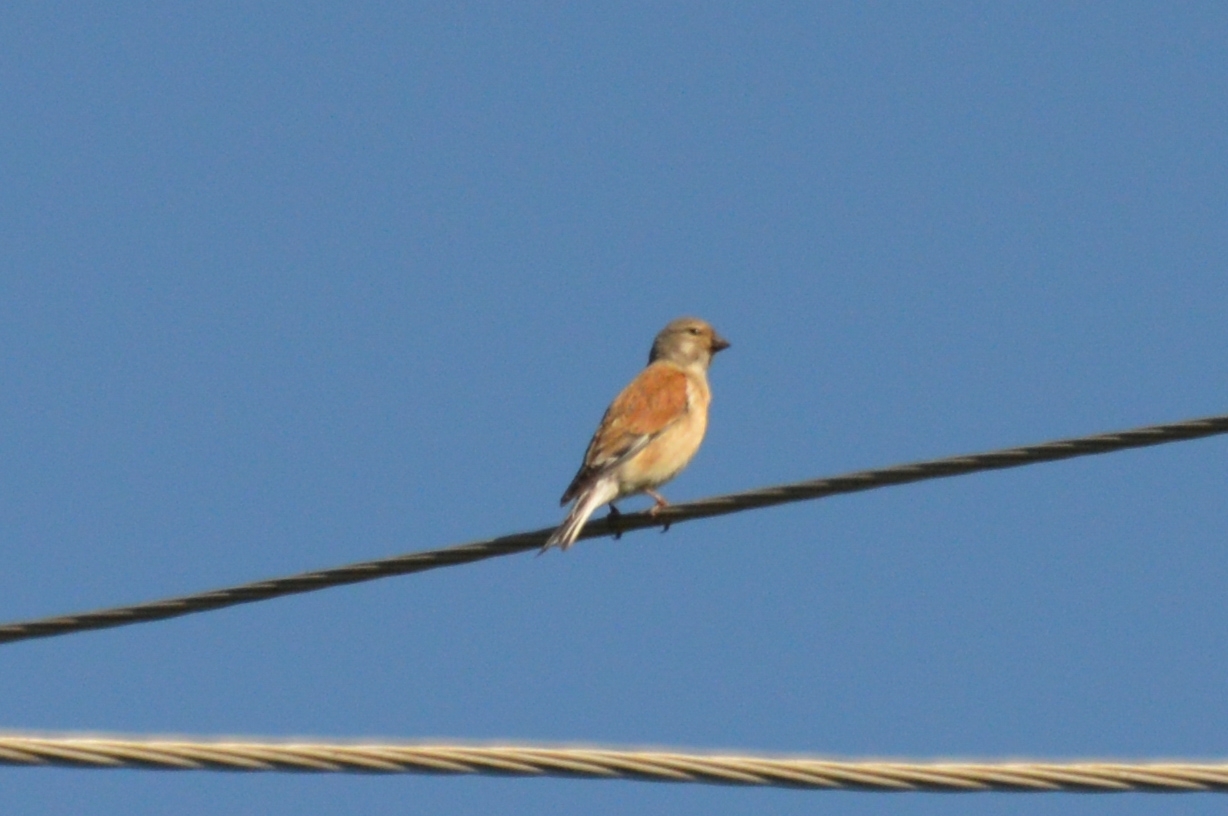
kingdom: Animalia
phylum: Chordata
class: Aves
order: Passeriformes
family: Fringillidae
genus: Linaria
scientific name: Linaria cannabina
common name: Common linnet
